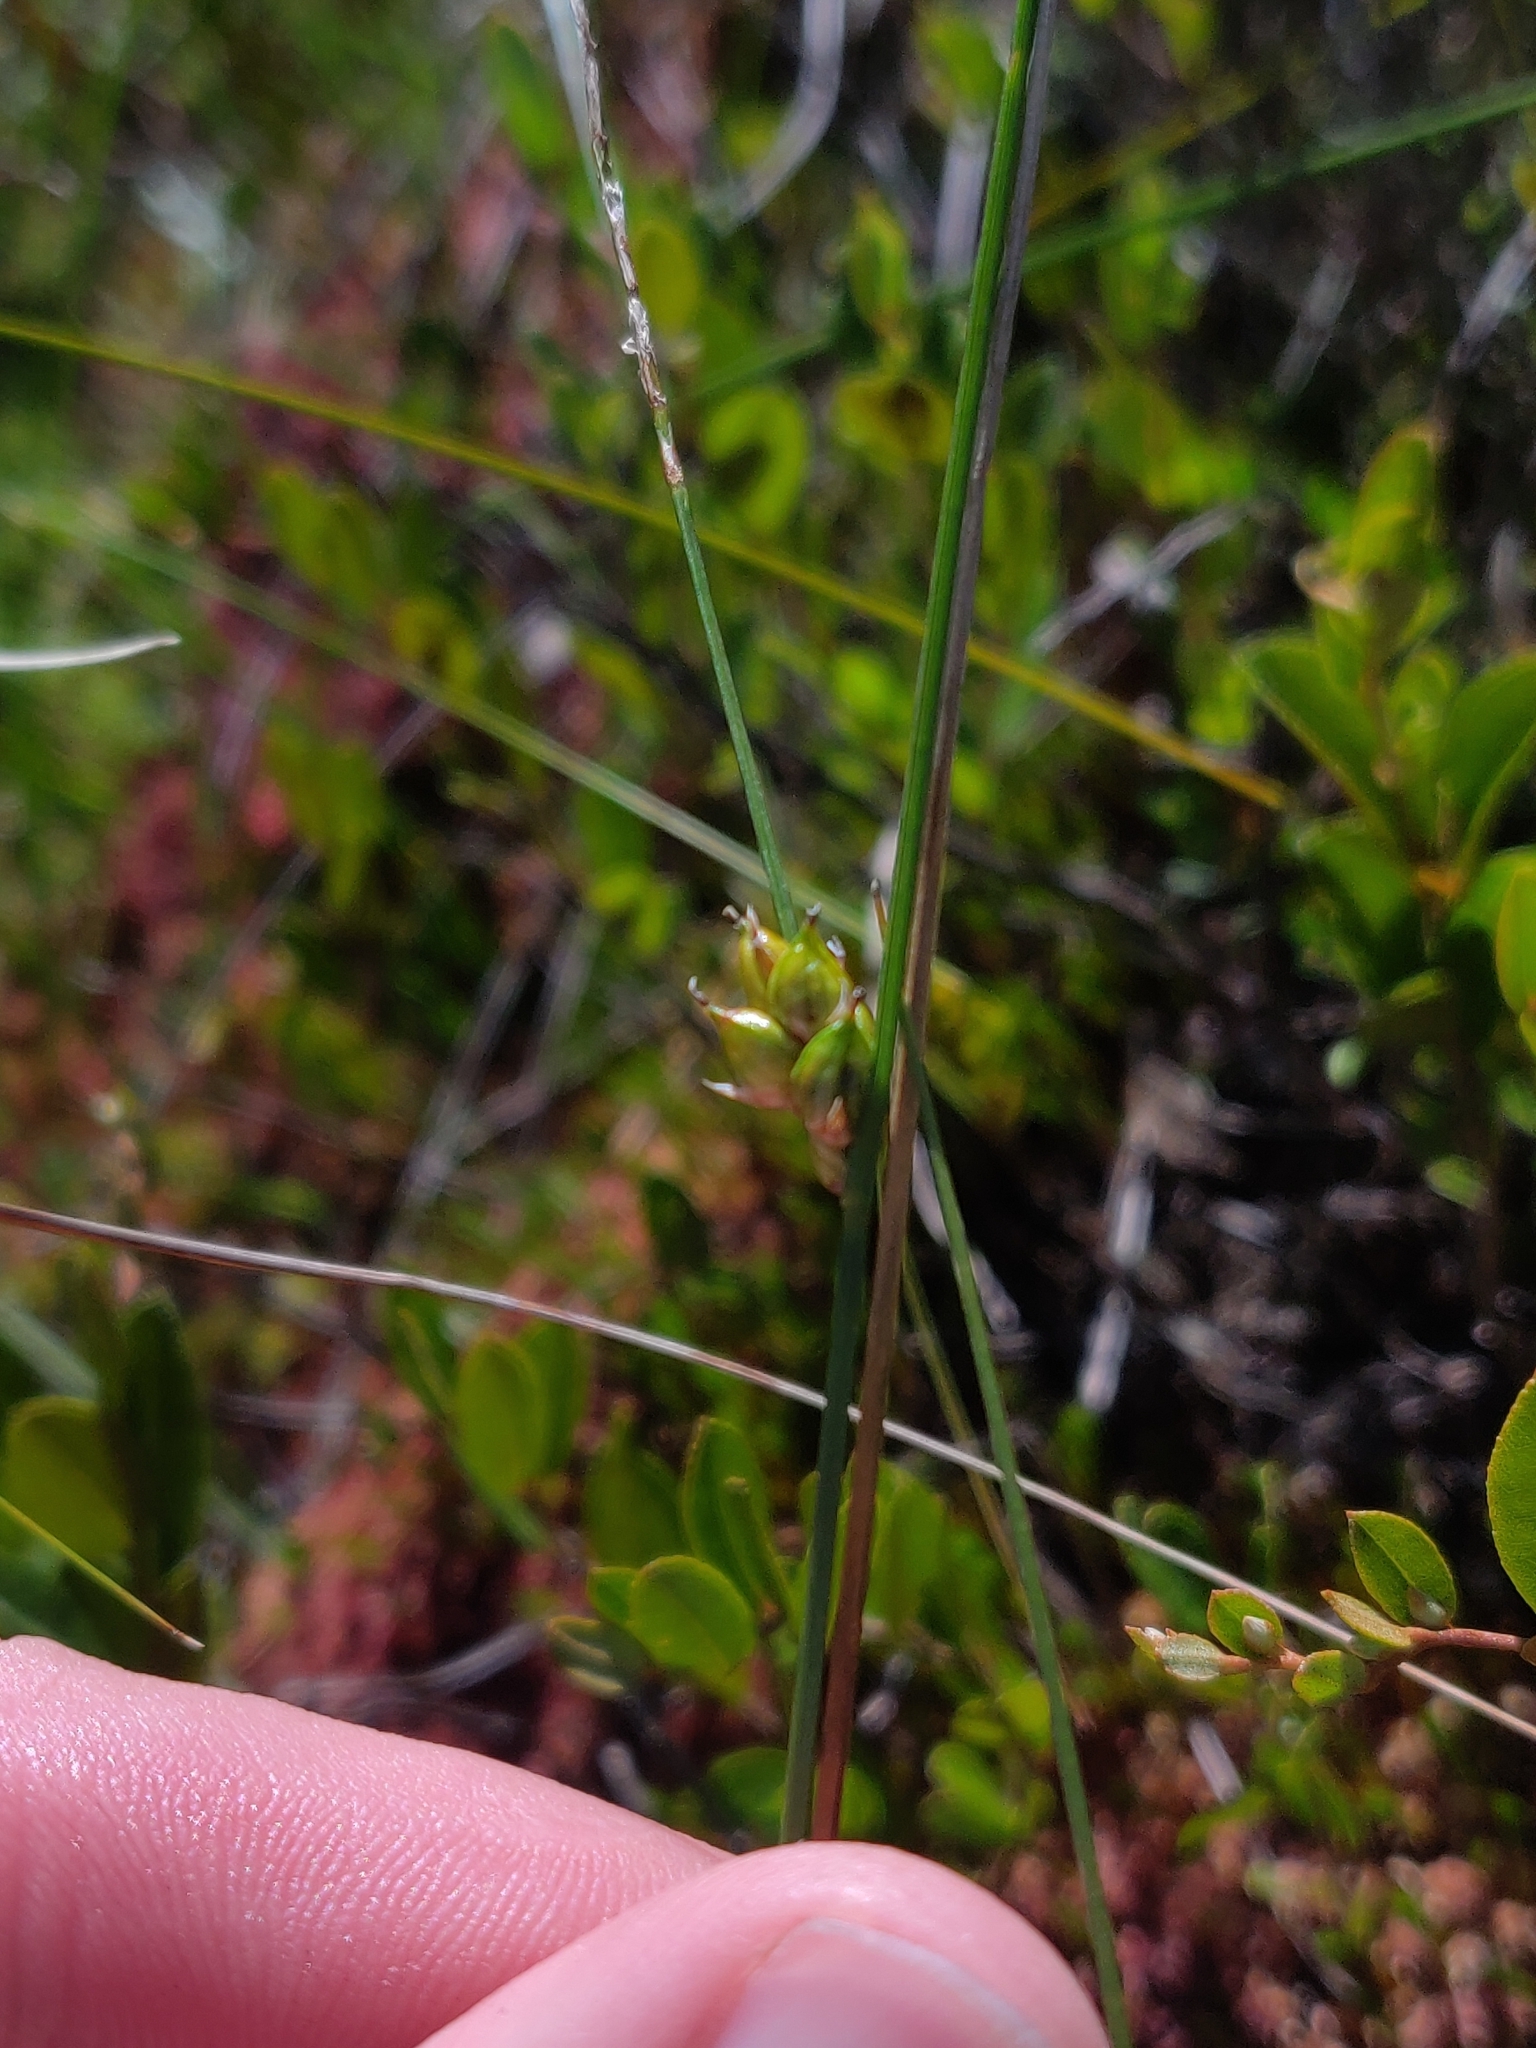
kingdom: Plantae
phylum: Tracheophyta
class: Liliopsida
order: Poales
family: Cyperaceae
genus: Carex
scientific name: Carex oligosperma
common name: Few-seed sedge
